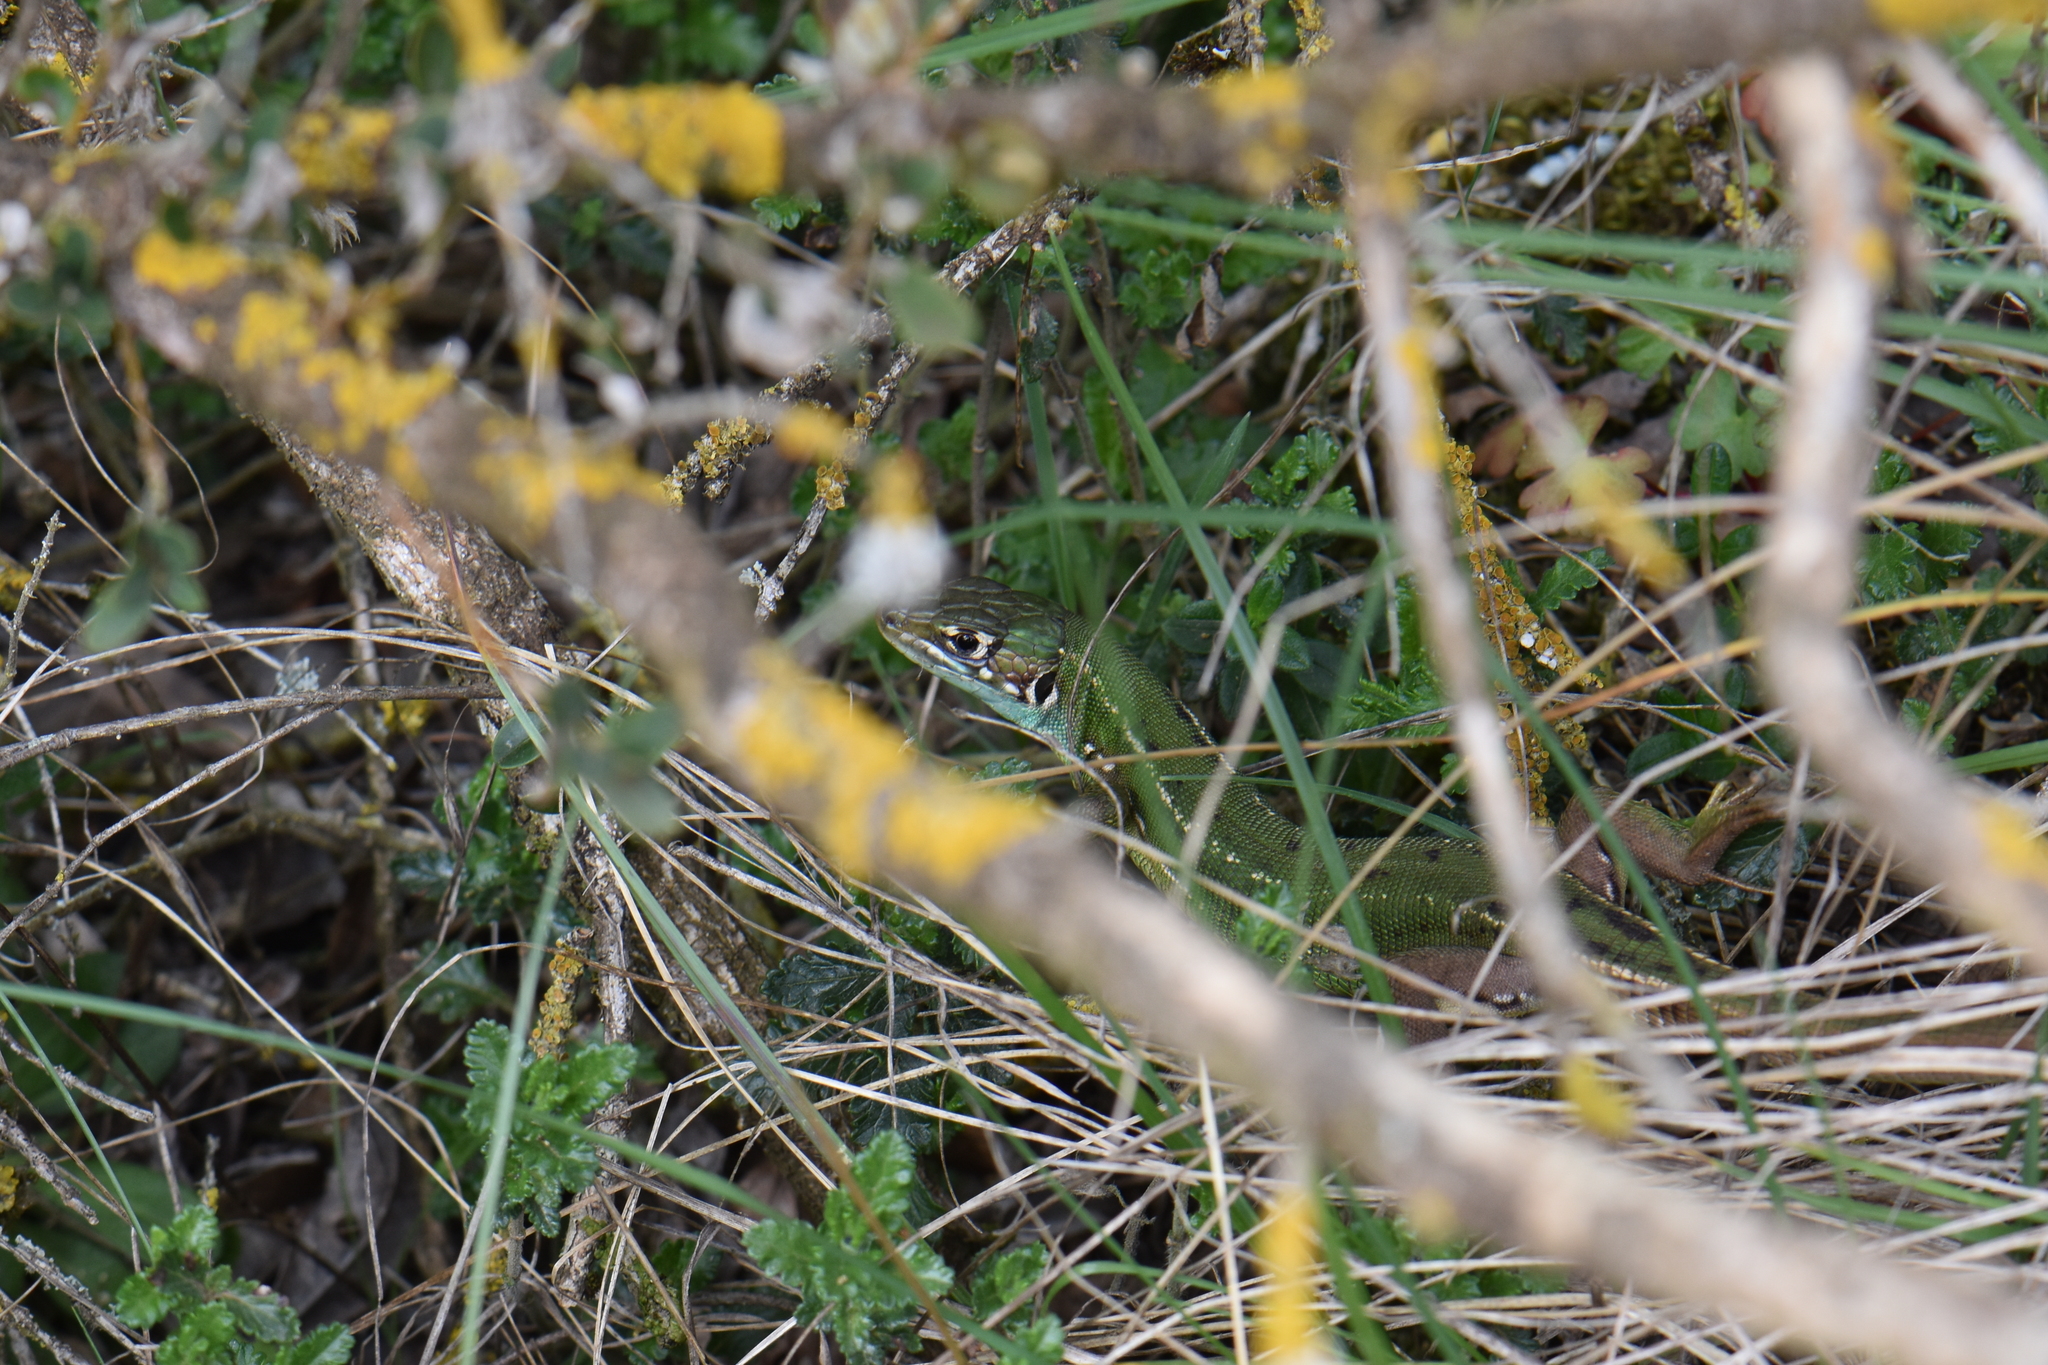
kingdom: Animalia
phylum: Chordata
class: Squamata
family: Lacertidae
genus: Lacerta
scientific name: Lacerta bilineata
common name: Western green lizard
